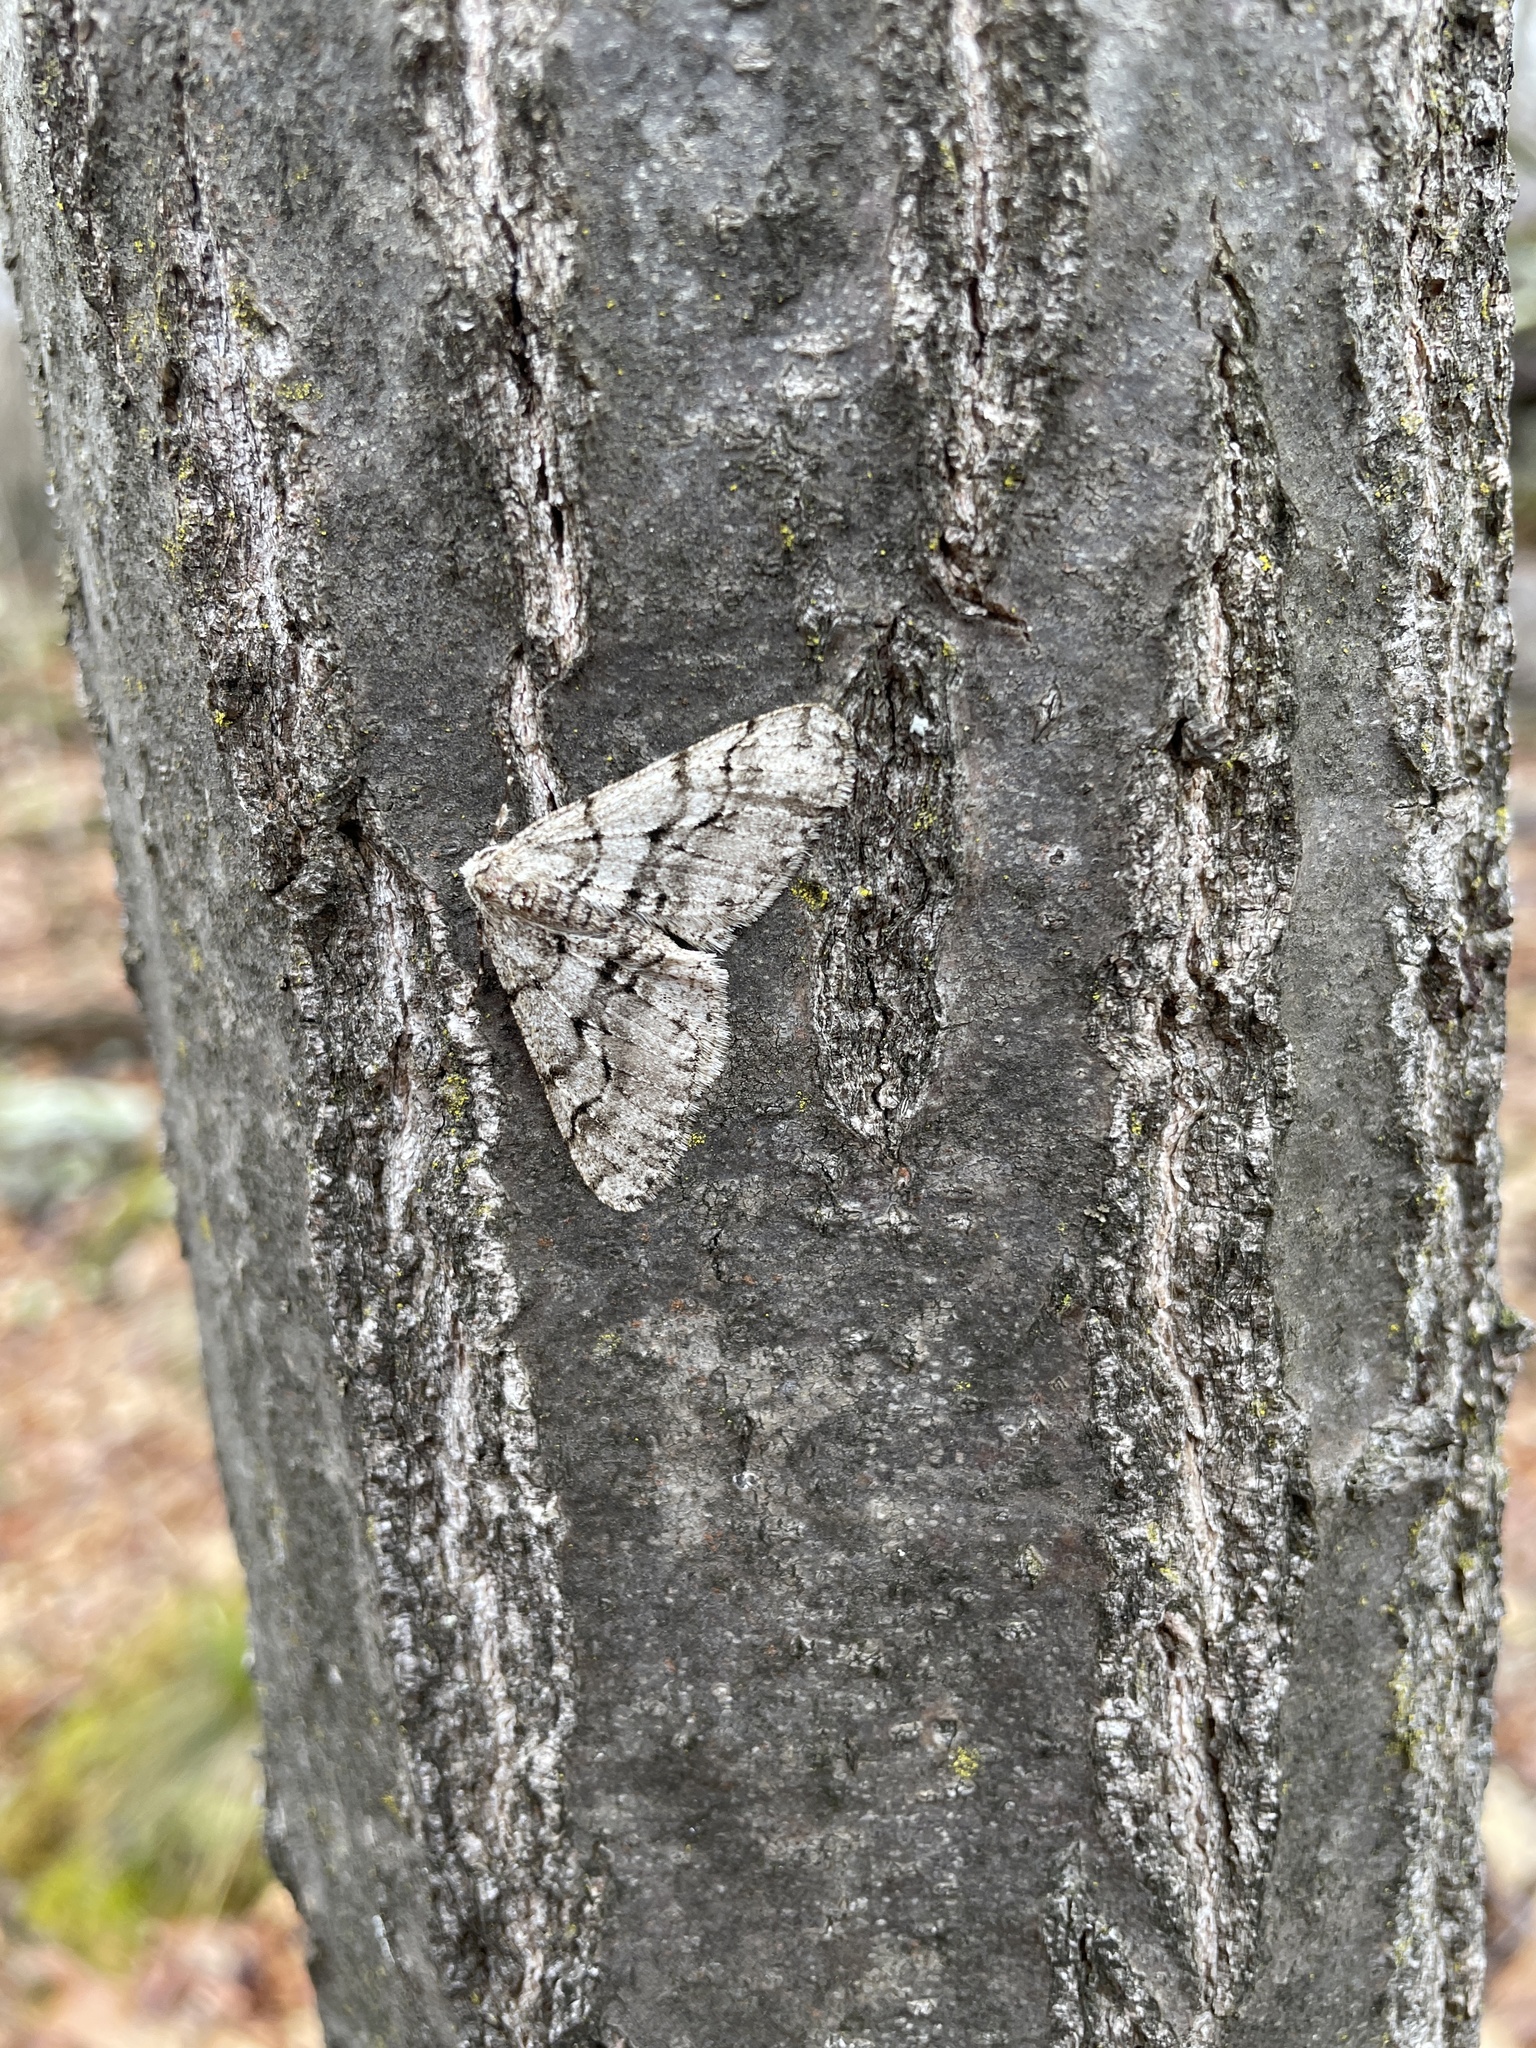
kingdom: Animalia
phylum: Arthropoda
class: Insecta
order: Lepidoptera
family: Geometridae
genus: Phigalia
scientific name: Phigalia titea
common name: Spiny looper
